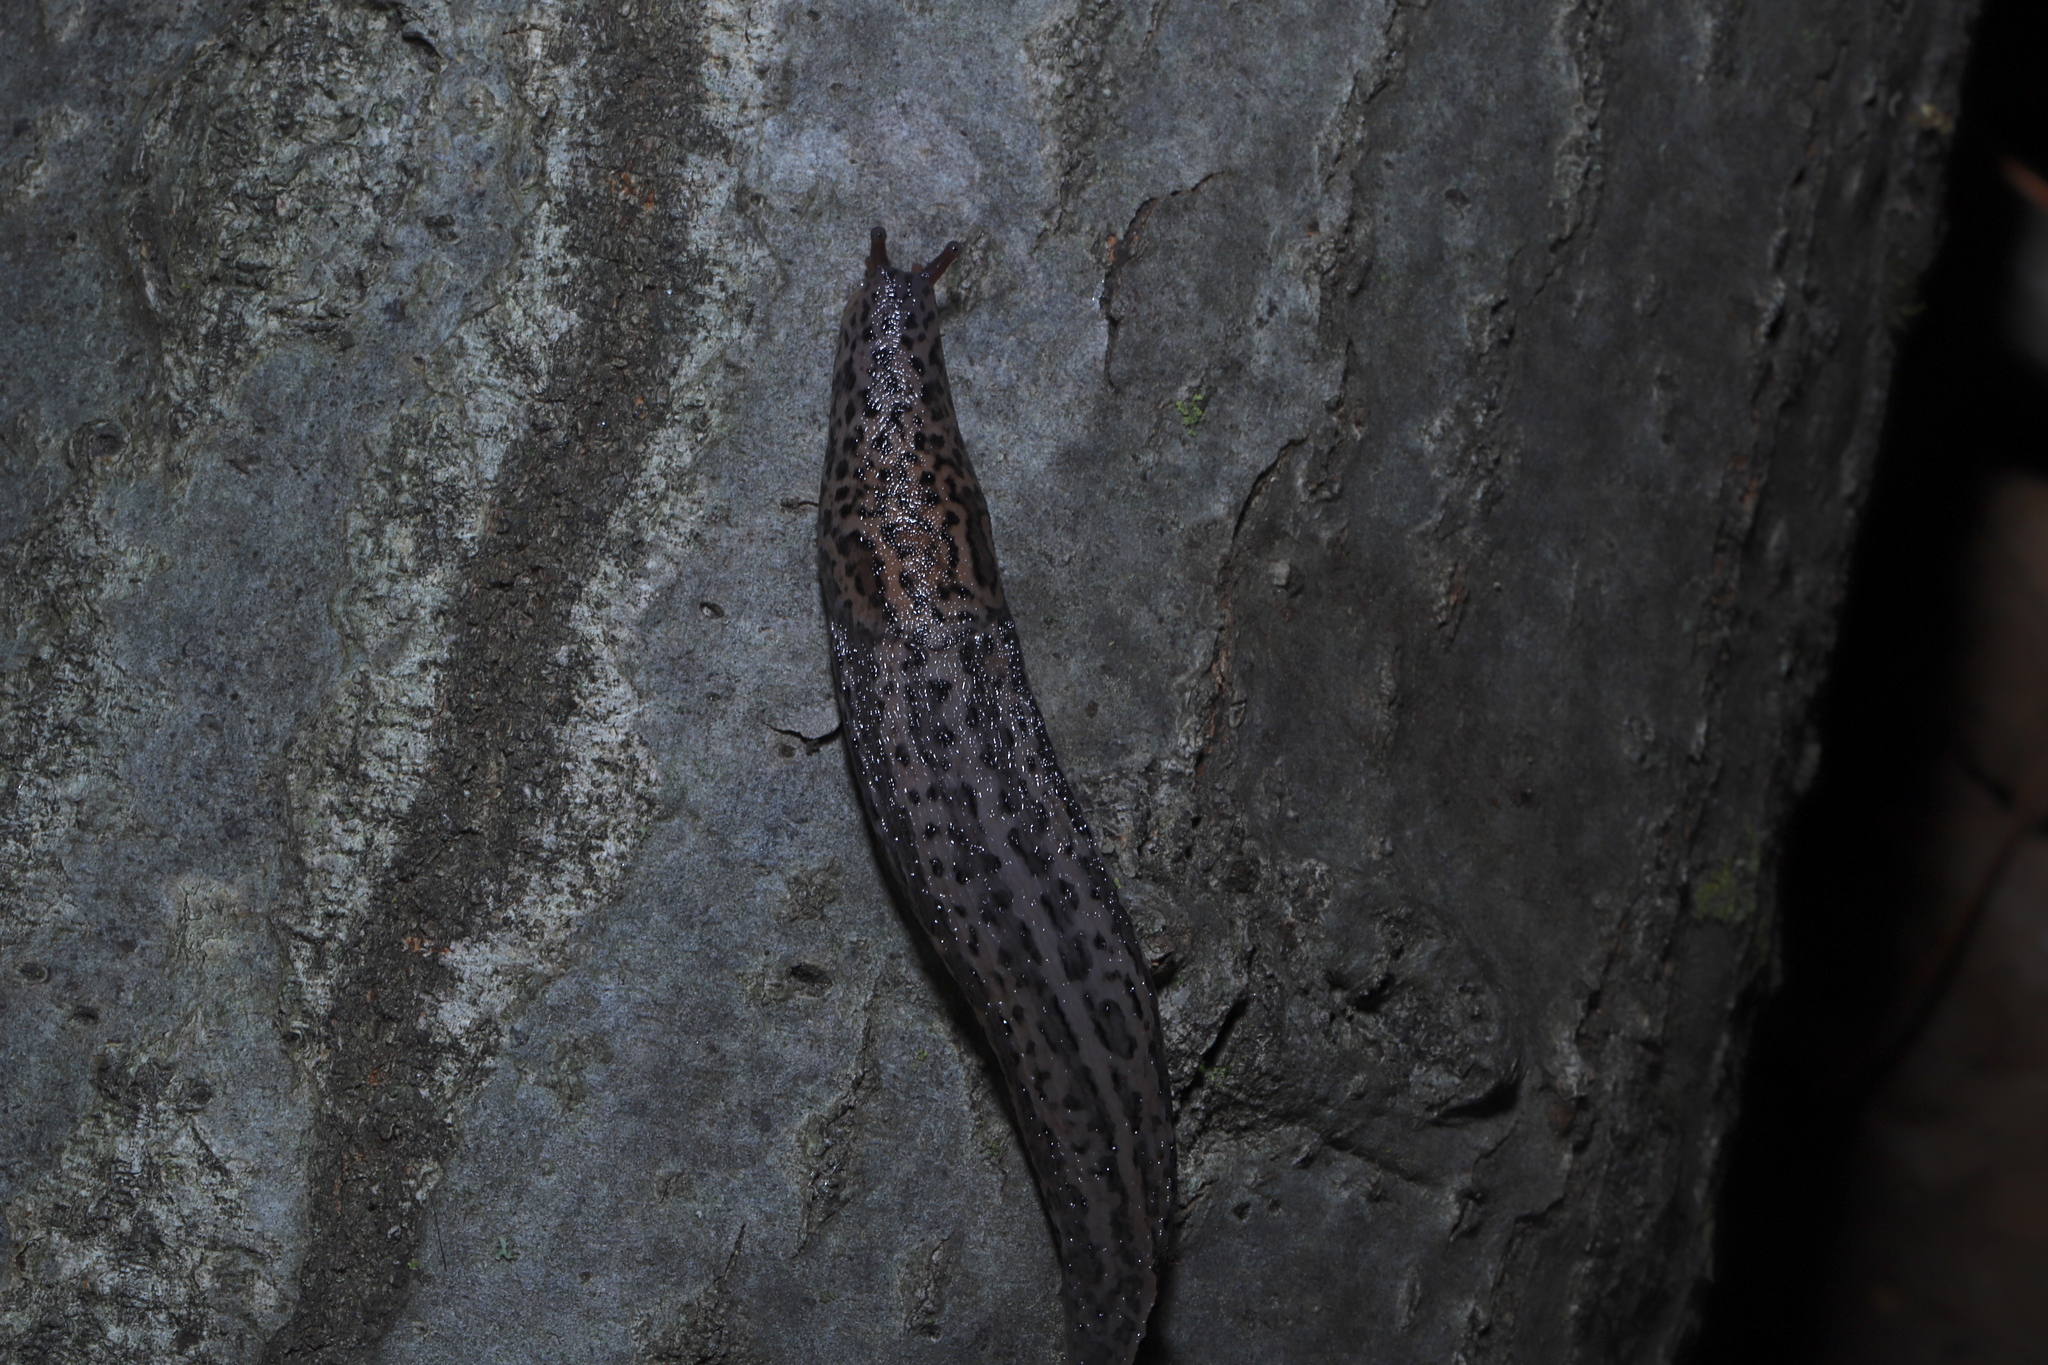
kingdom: Animalia
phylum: Mollusca
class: Gastropoda
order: Stylommatophora
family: Limacidae
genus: Limax
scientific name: Limax maximus
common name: Great grey slug
